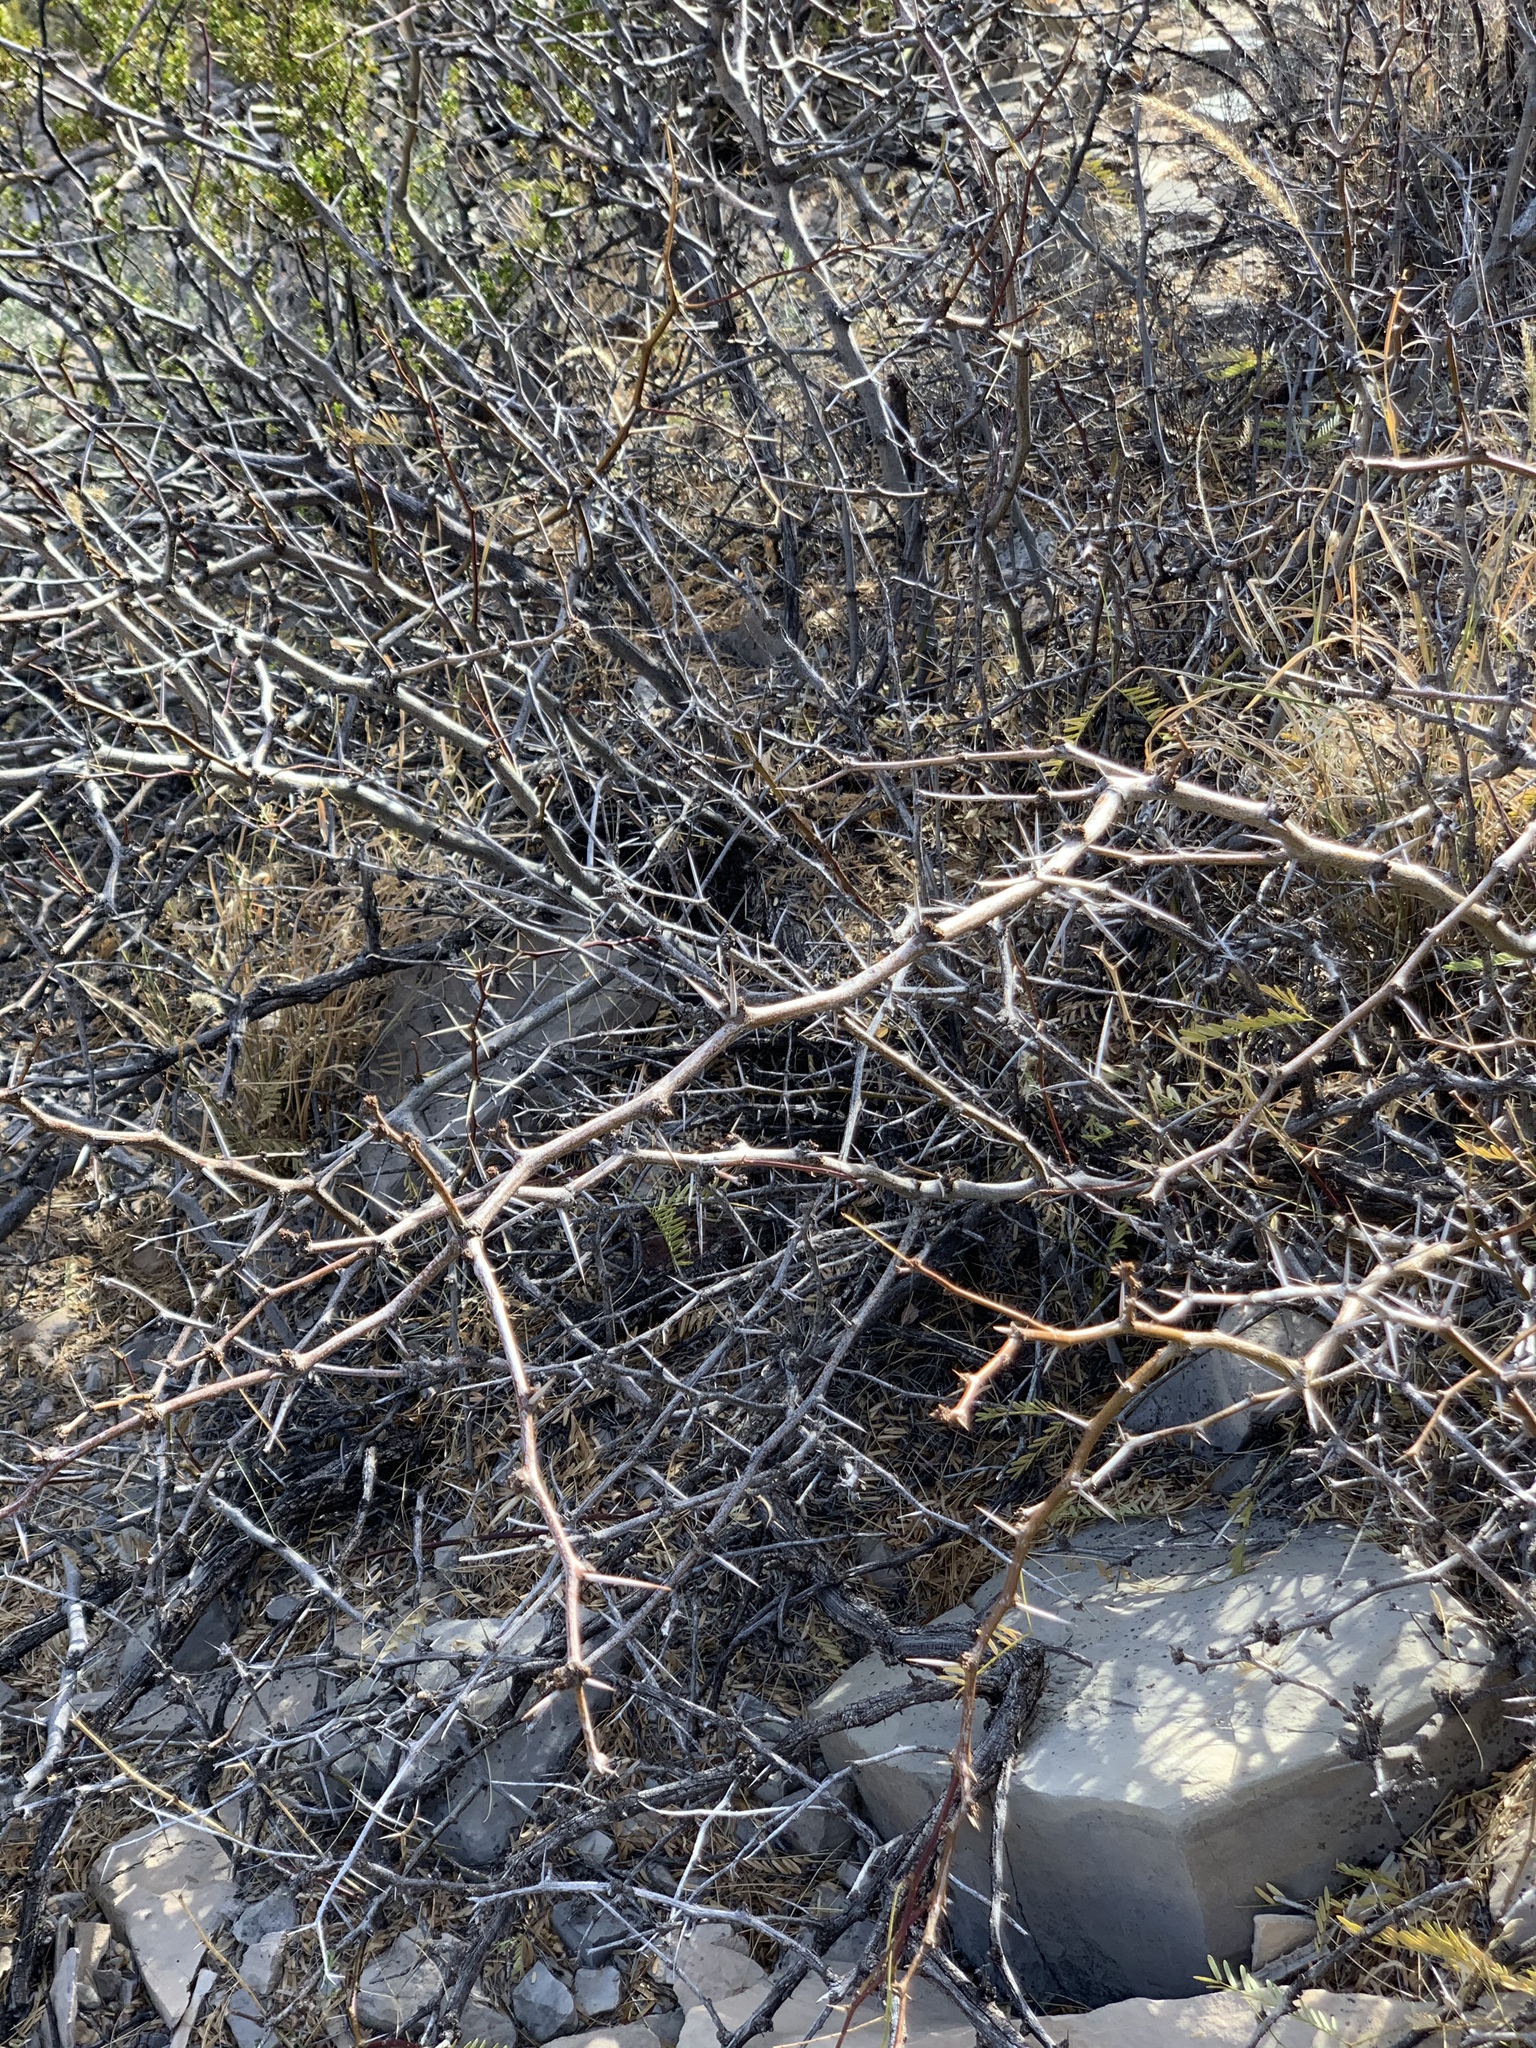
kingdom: Plantae
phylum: Tracheophyta
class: Magnoliopsida
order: Fabales
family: Fabaceae
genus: Prosopis
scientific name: Prosopis glandulosa
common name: Honey mesquite
